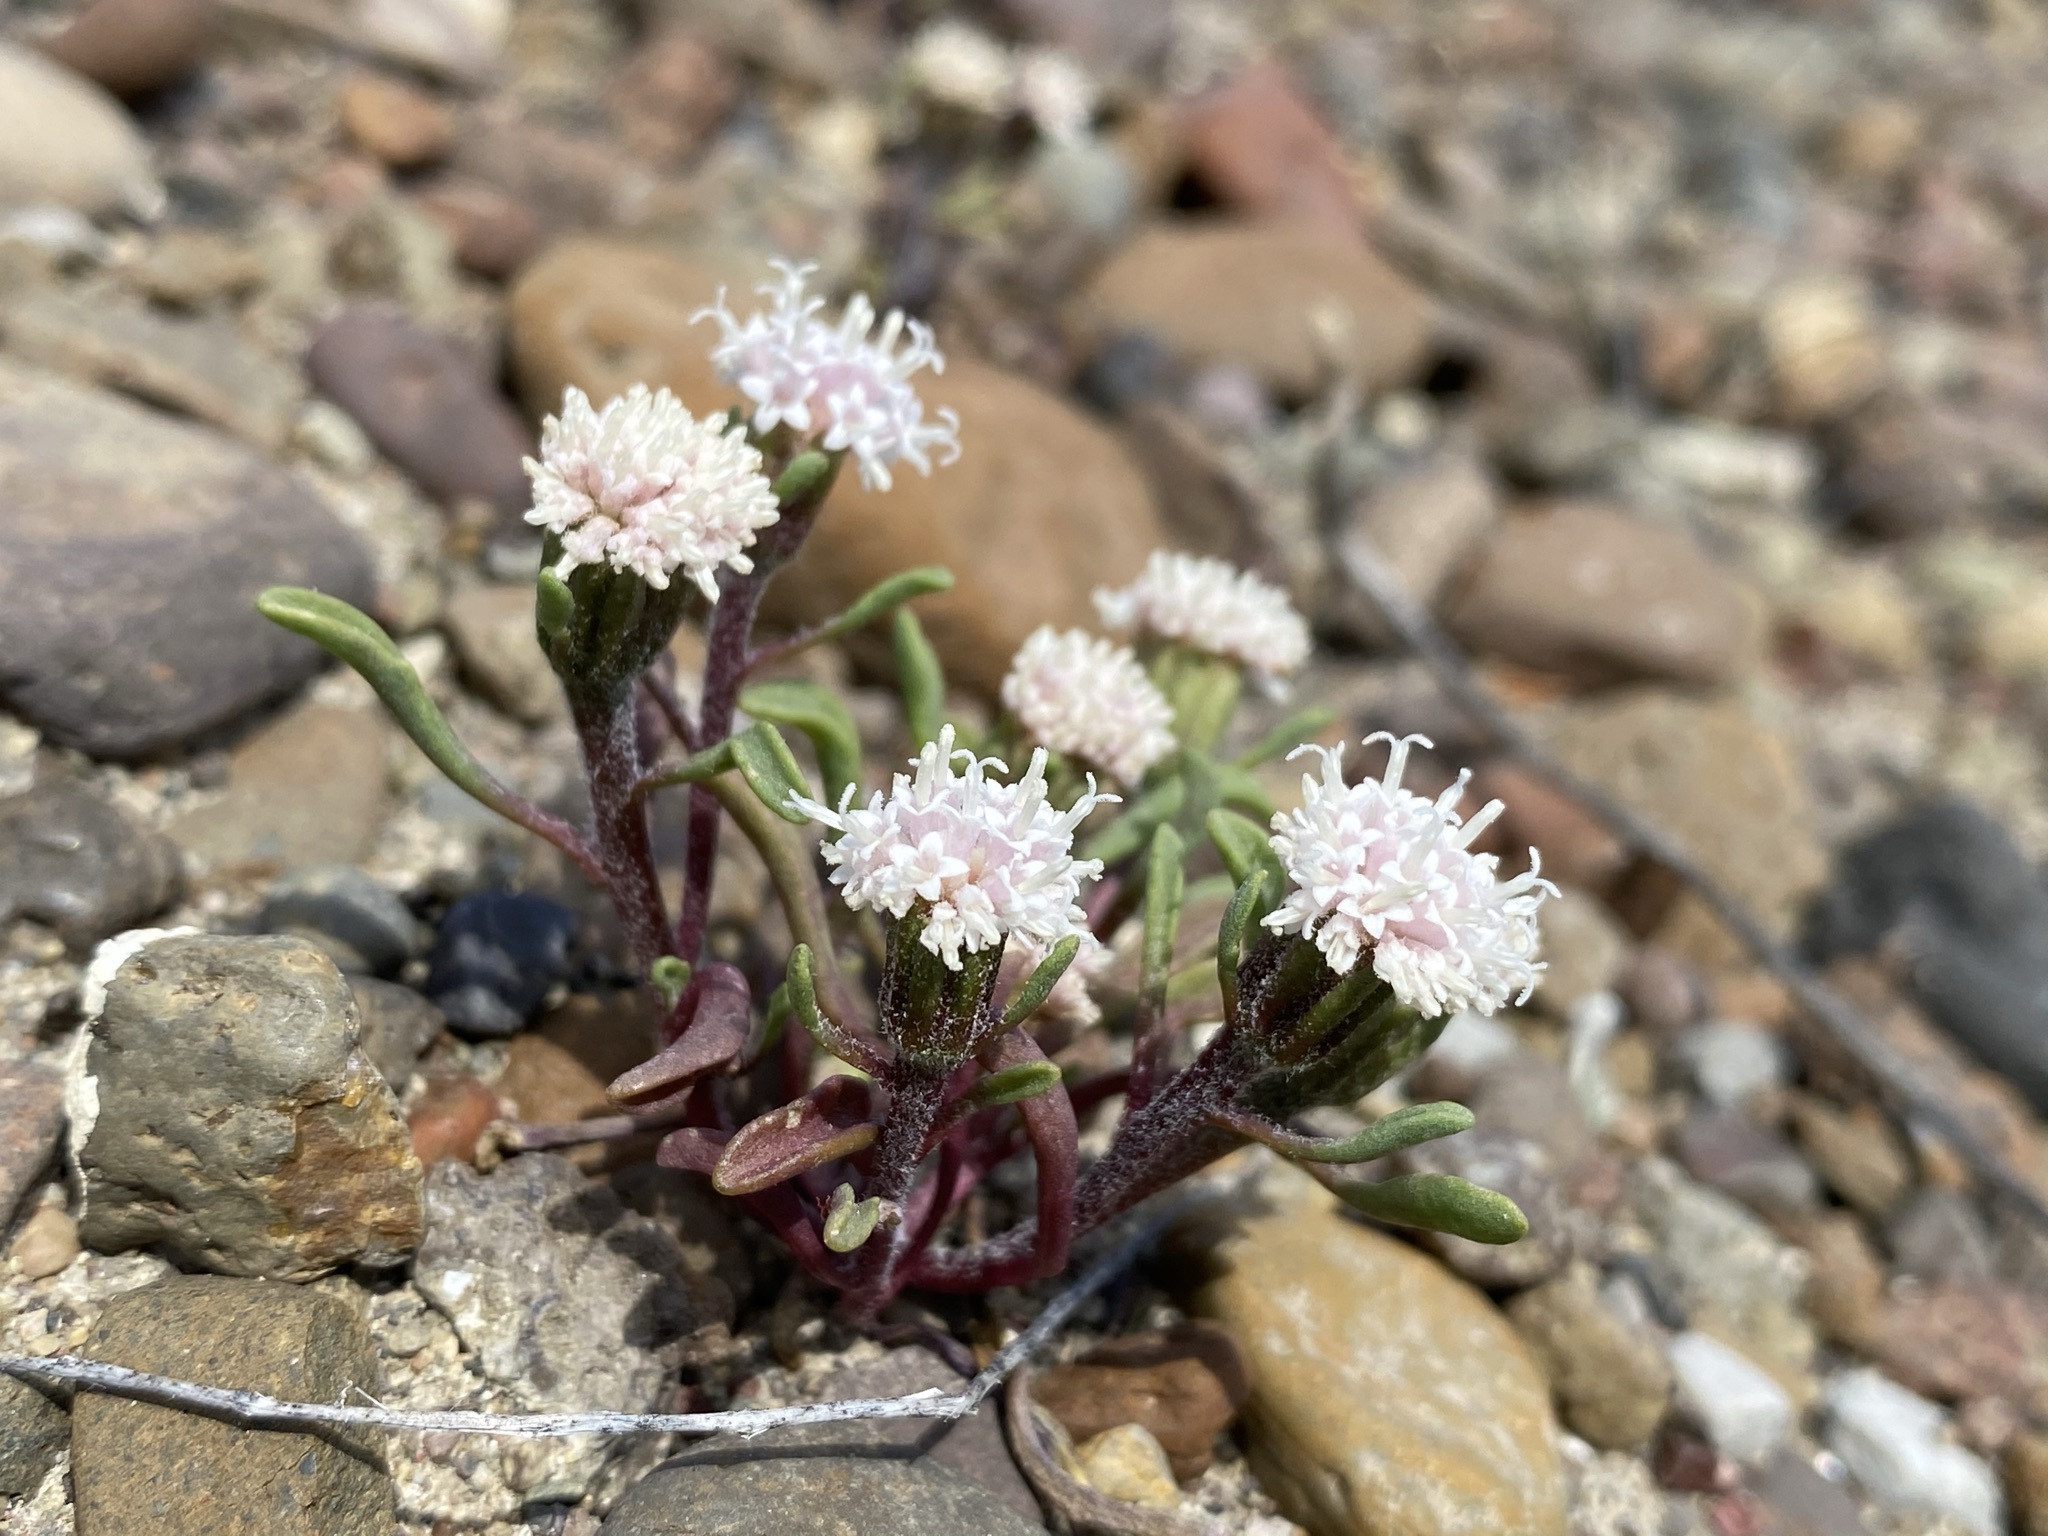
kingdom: Plantae
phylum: Tracheophyta
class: Magnoliopsida
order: Asterales
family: Asteraceae
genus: Chaenactis
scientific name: Chaenactis cusickii
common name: Cusick's pincushion
